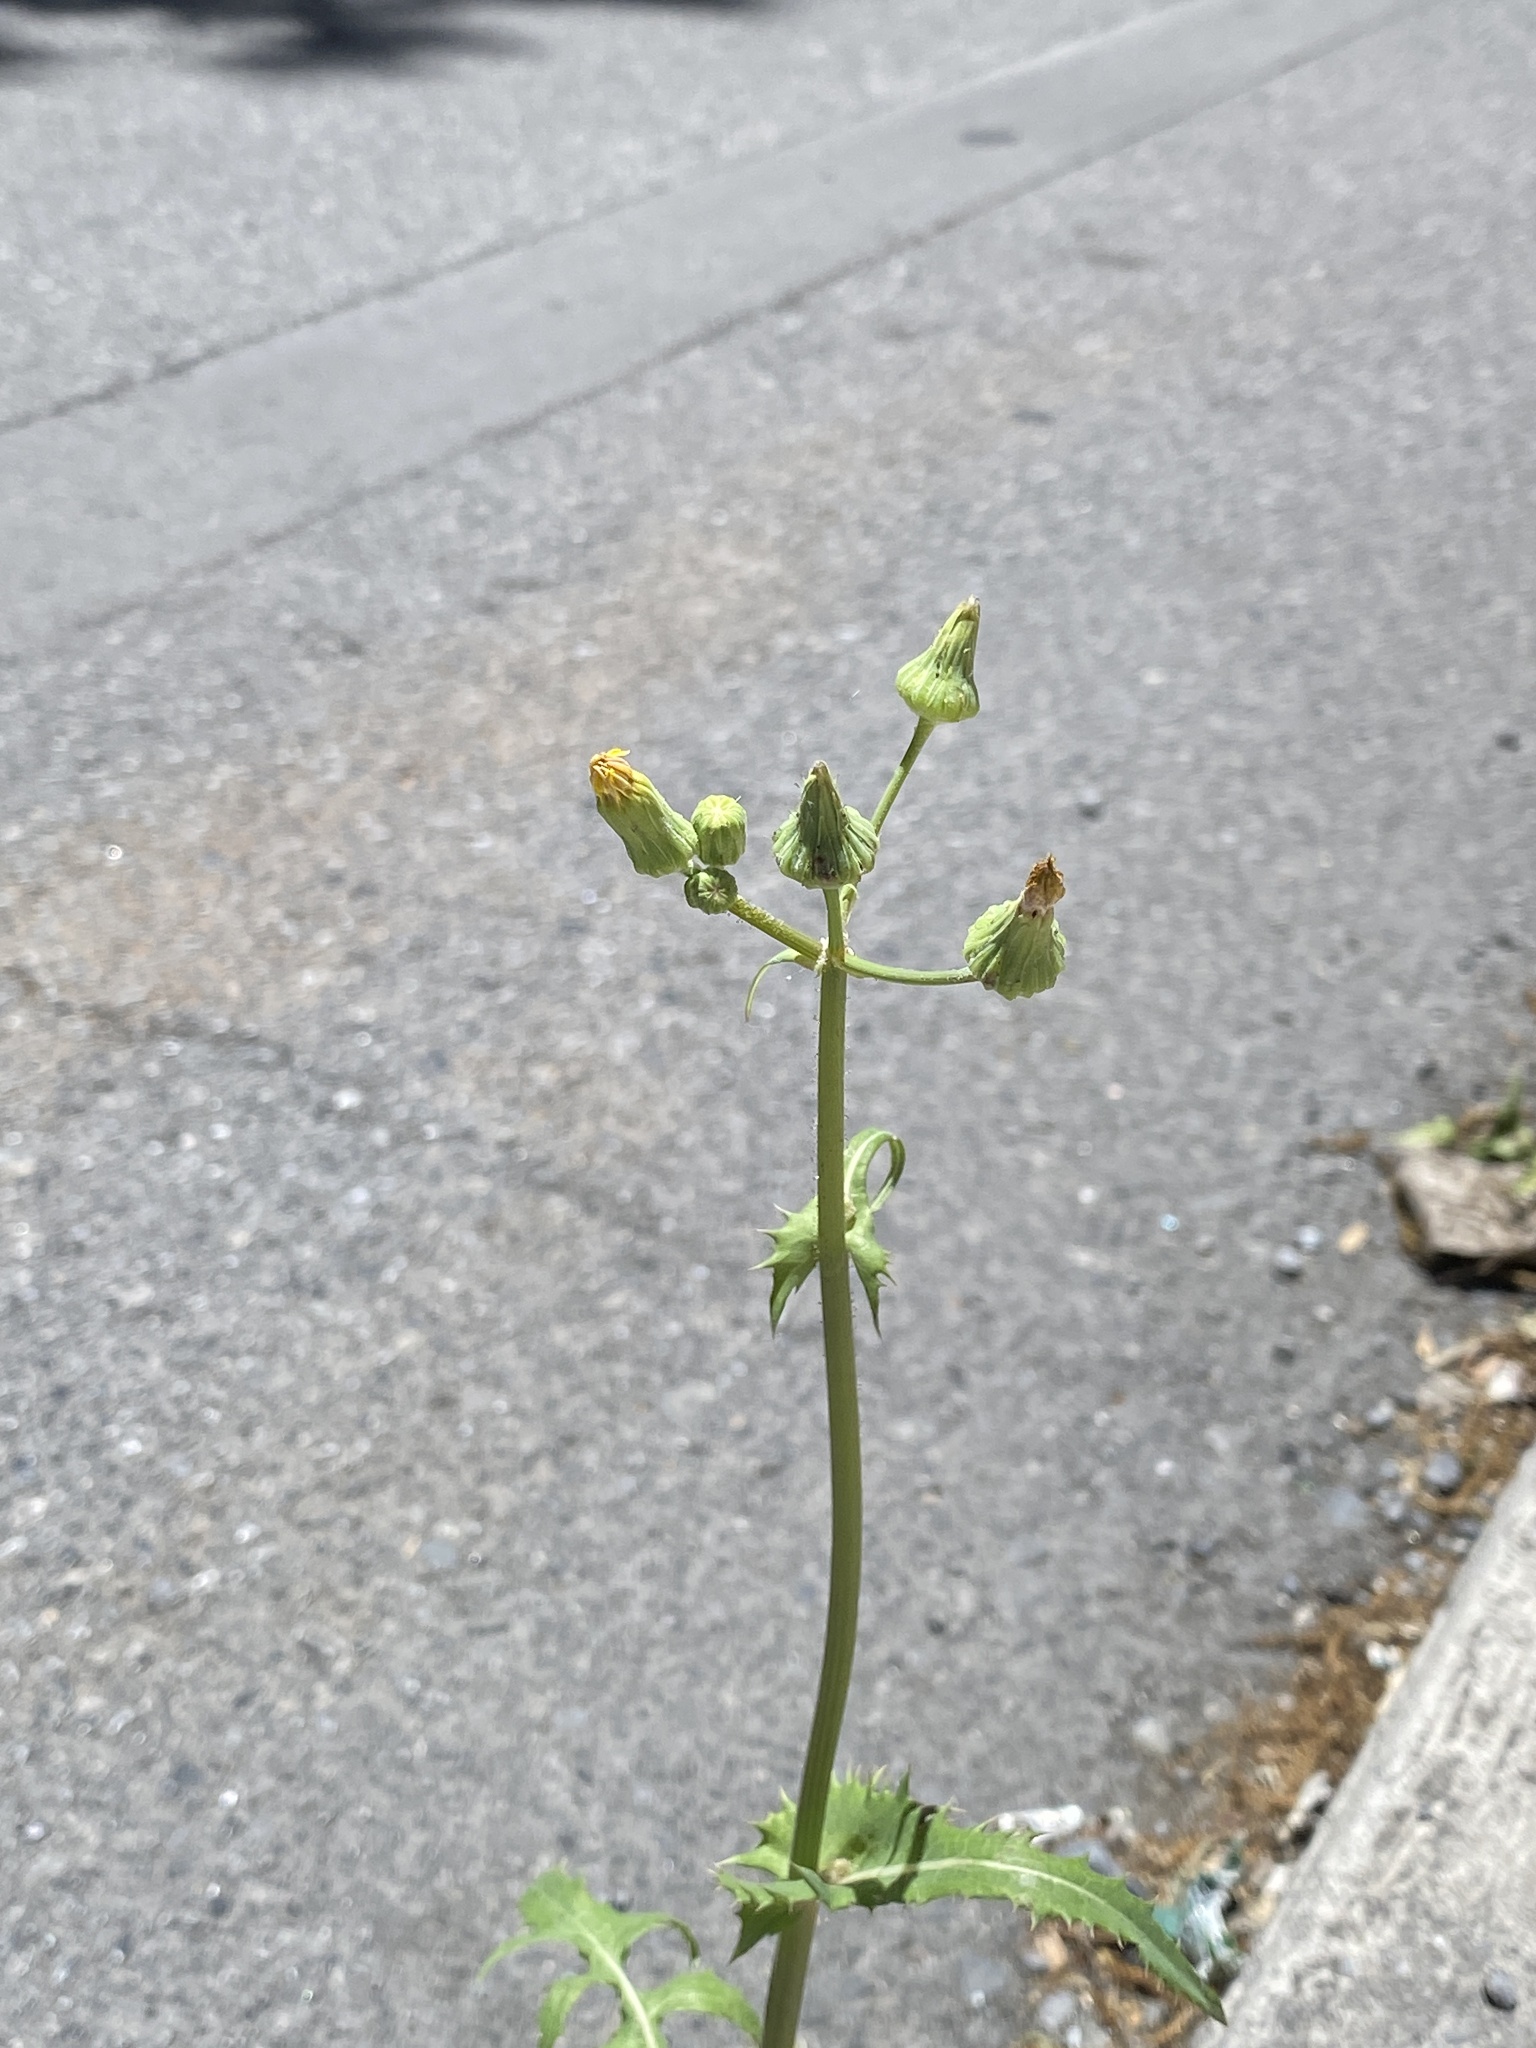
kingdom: Plantae
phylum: Tracheophyta
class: Magnoliopsida
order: Asterales
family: Asteraceae
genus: Sonchus
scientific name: Sonchus asper
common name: Prickly sow-thistle
